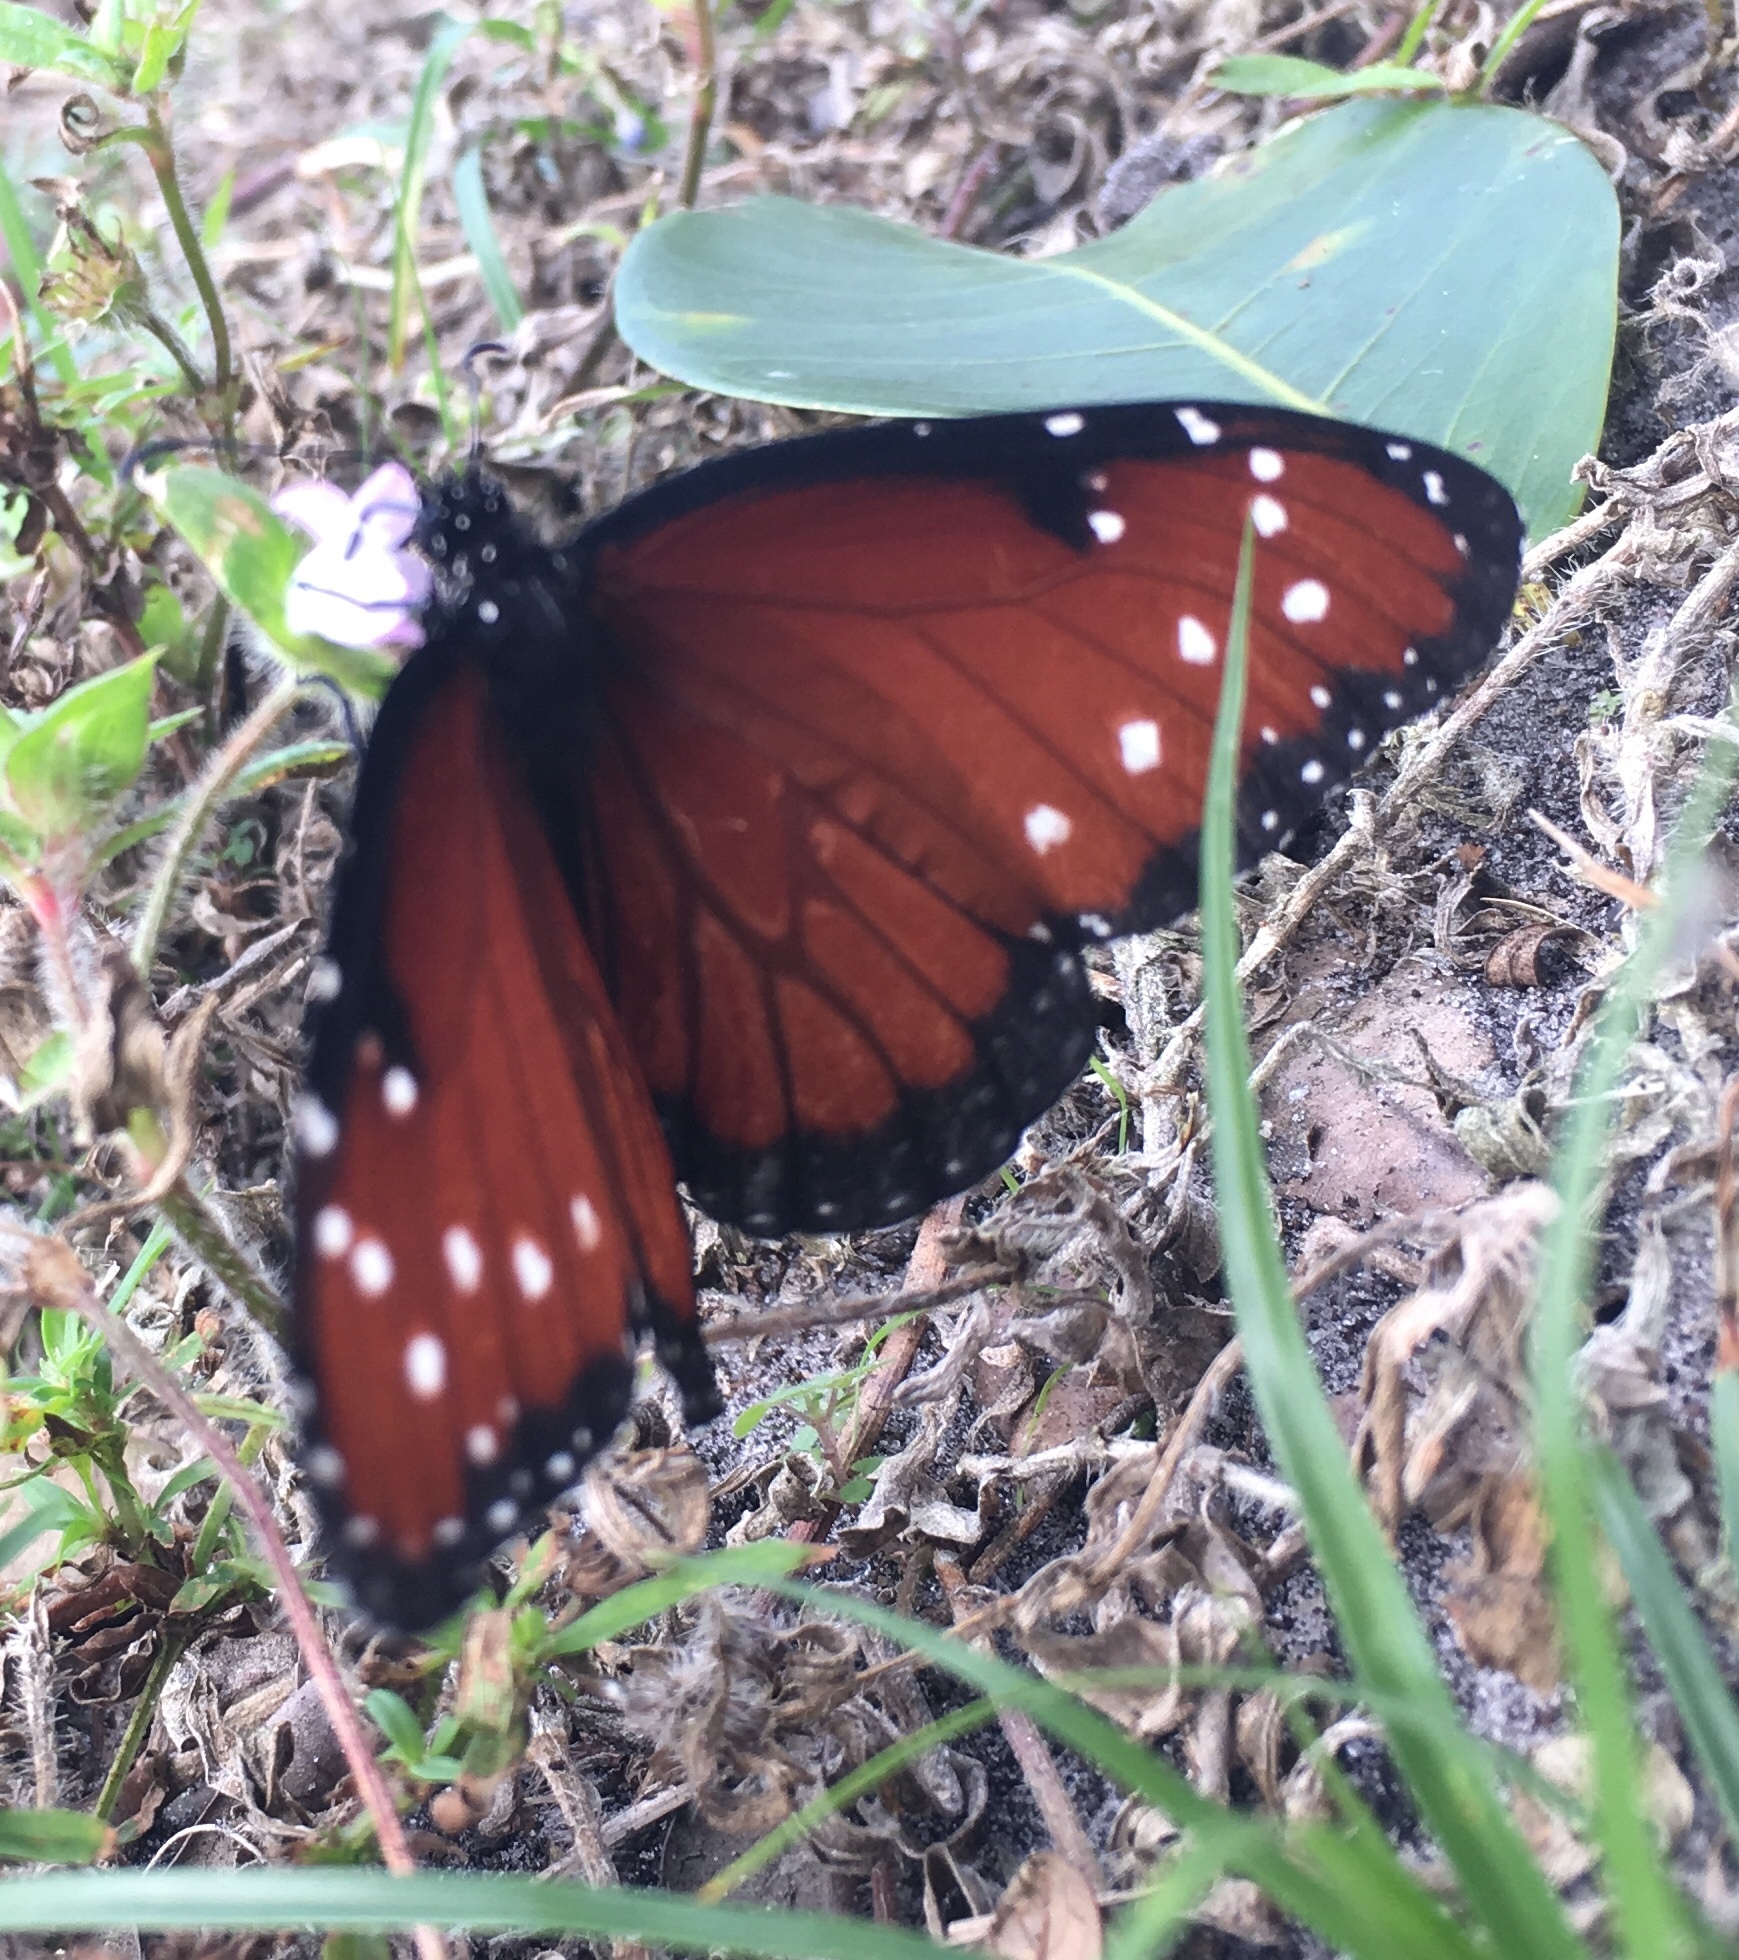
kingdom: Animalia
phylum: Arthropoda
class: Insecta
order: Lepidoptera
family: Nymphalidae
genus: Danaus
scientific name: Danaus gilippus
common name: Queen
